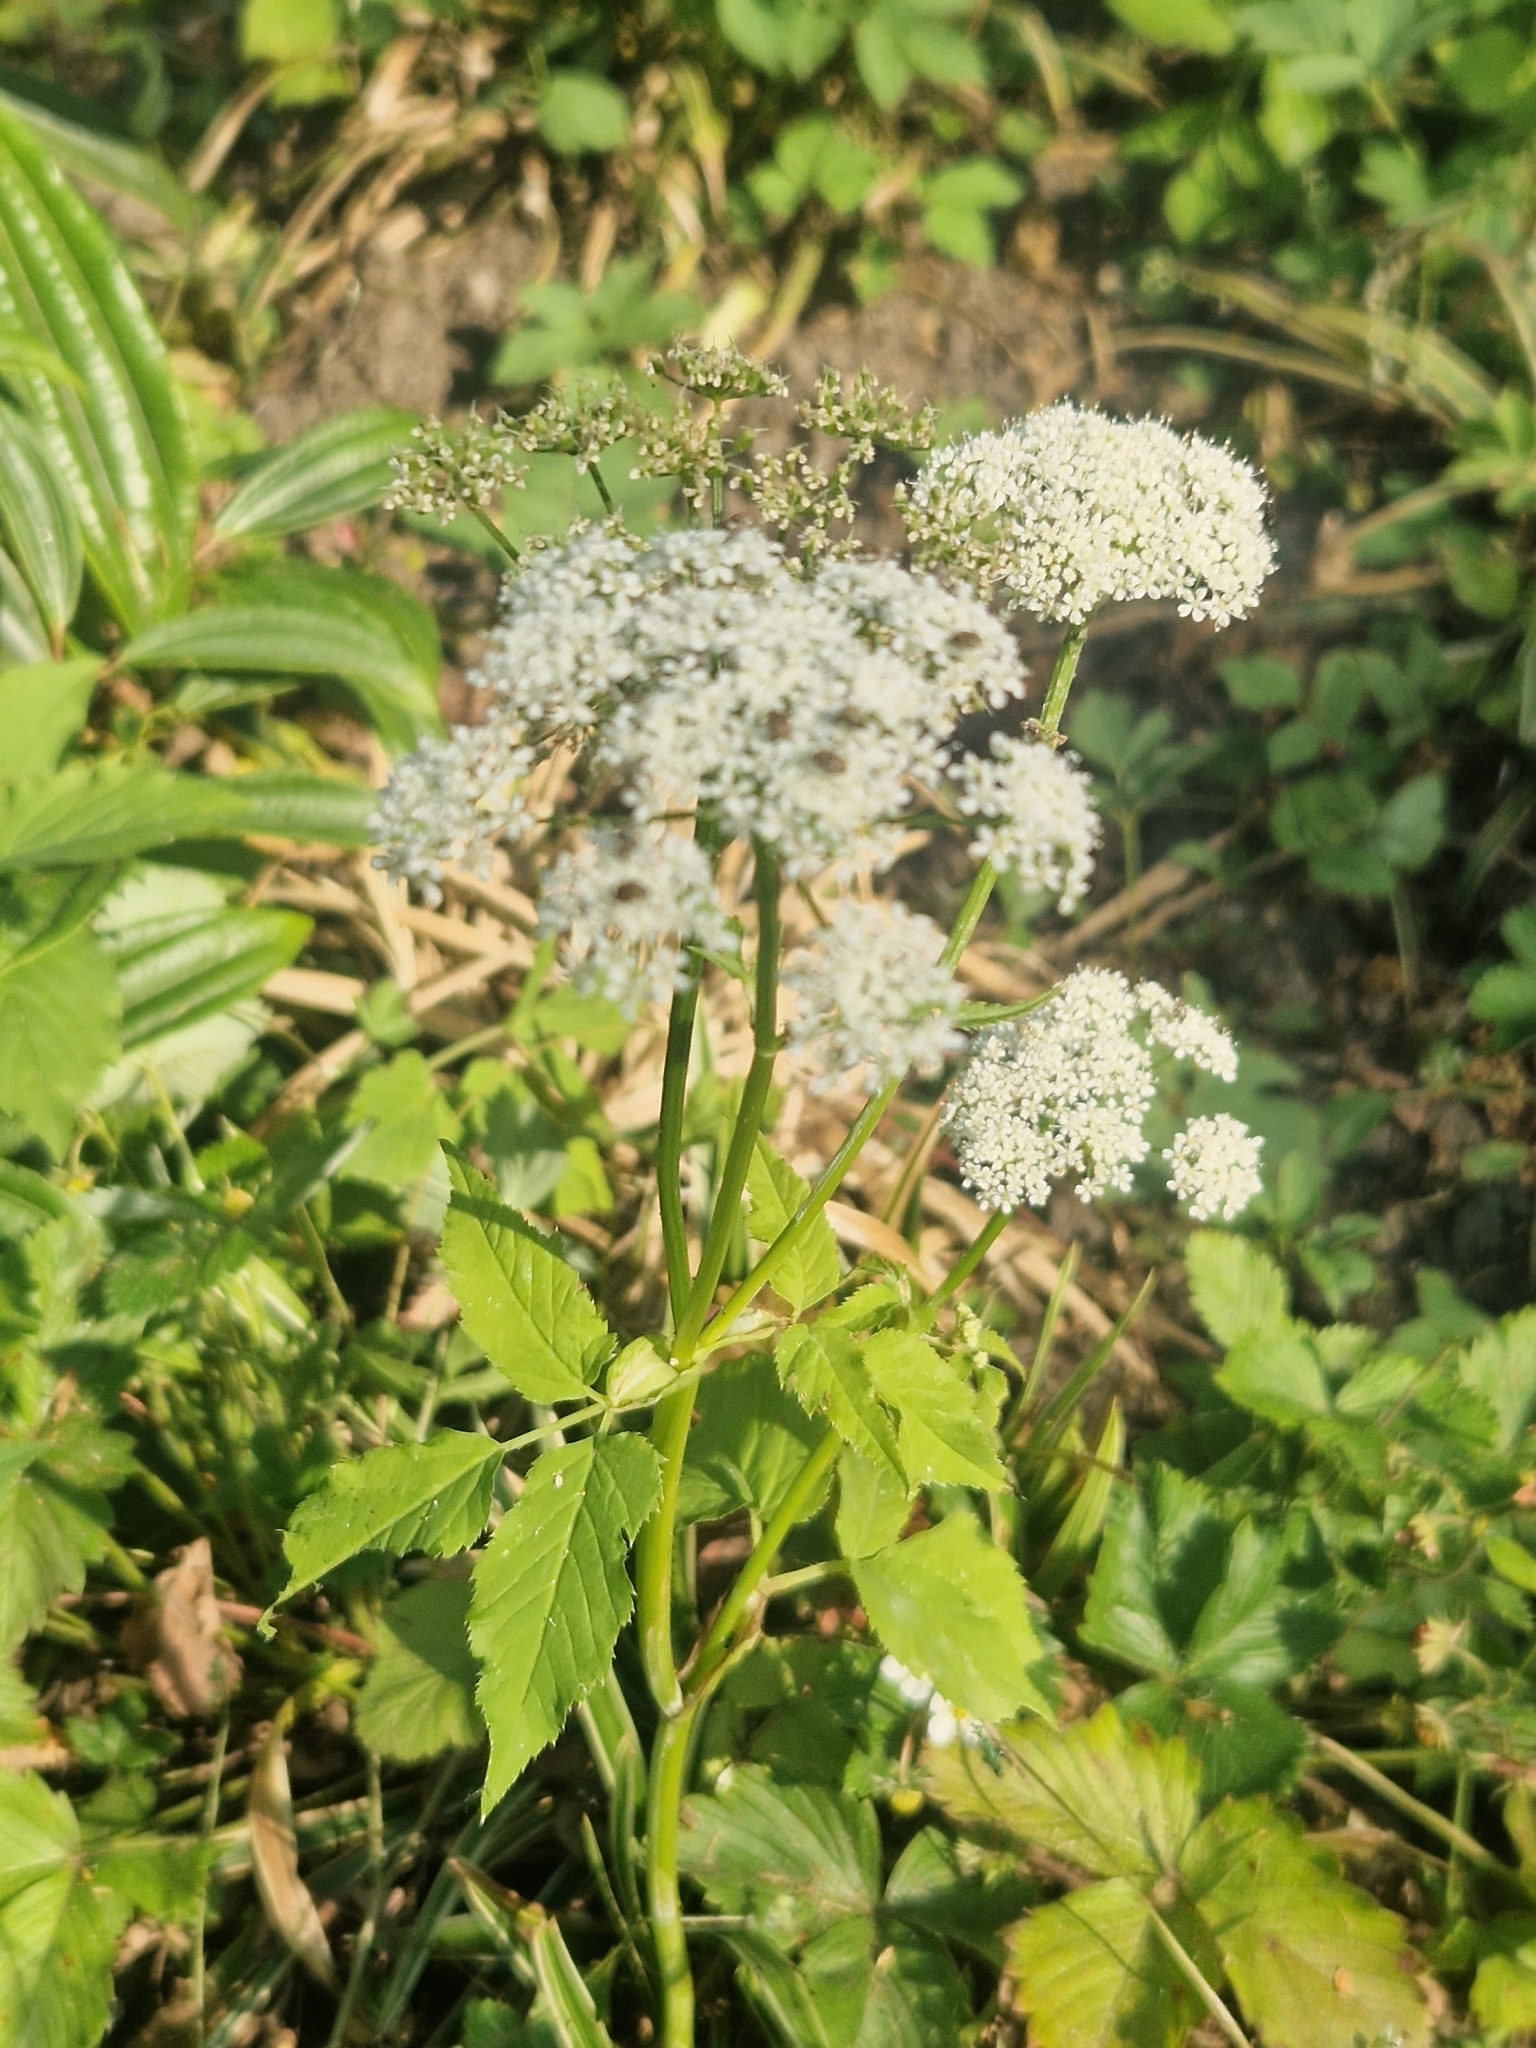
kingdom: Plantae
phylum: Tracheophyta
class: Magnoliopsida
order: Apiales
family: Apiaceae
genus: Aegopodium
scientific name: Aegopodium podagraria
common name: Ground-elder
